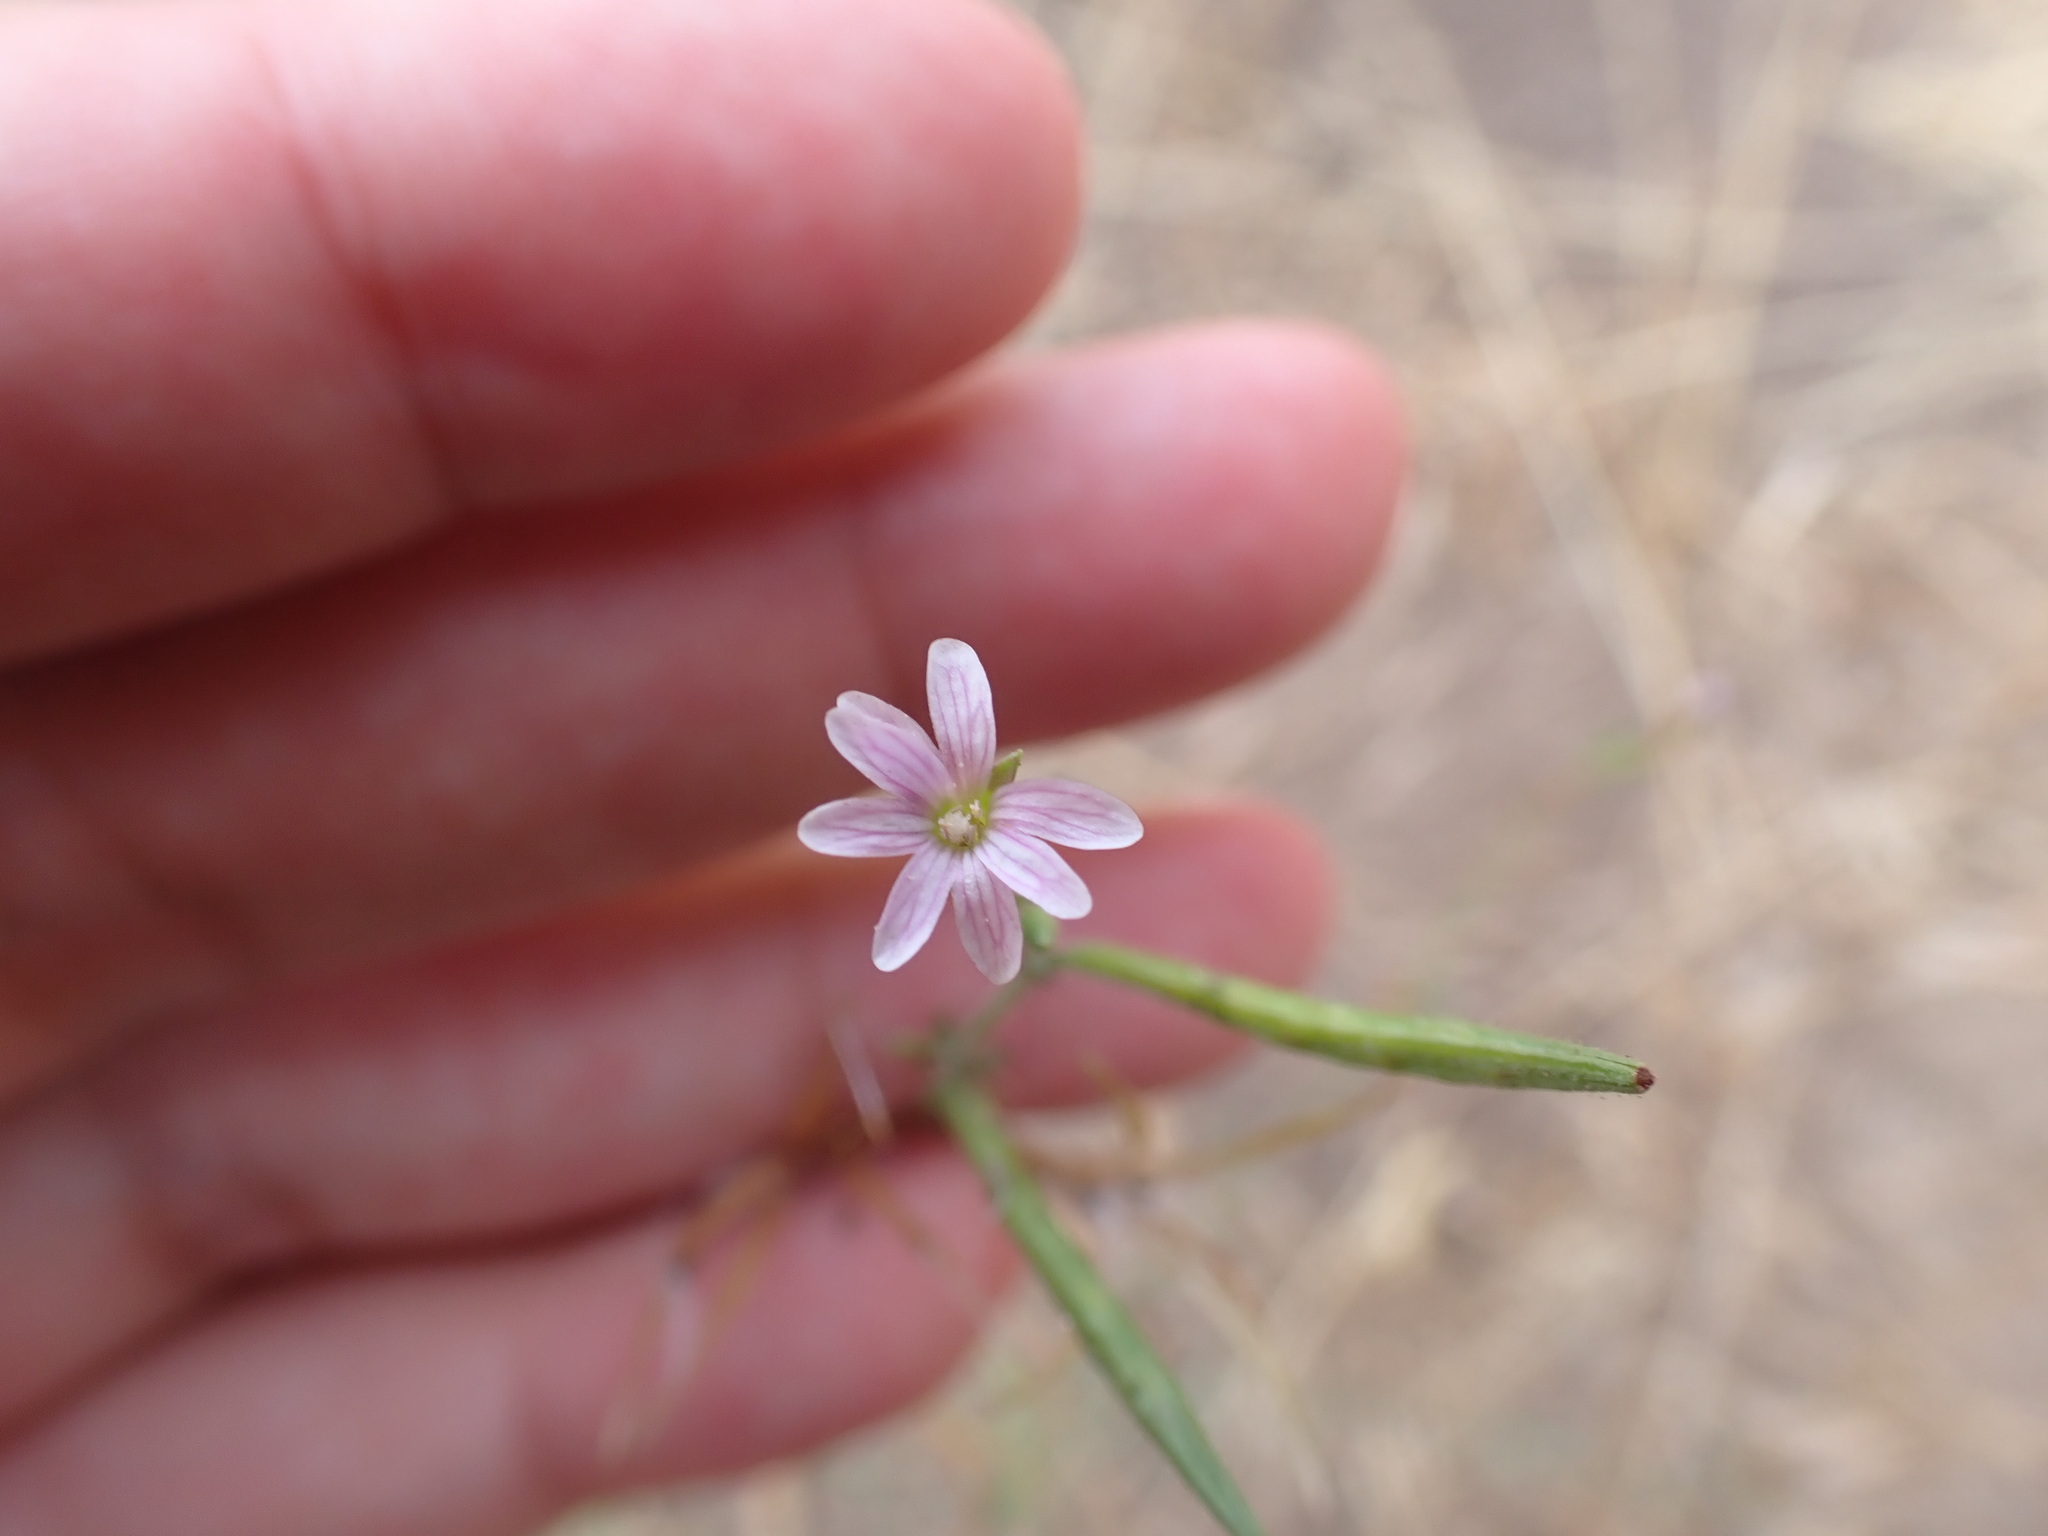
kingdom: Plantae
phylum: Tracheophyta
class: Magnoliopsida
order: Myrtales
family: Onagraceae
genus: Epilobium
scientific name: Epilobium brachycarpum
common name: Annual willowherb
